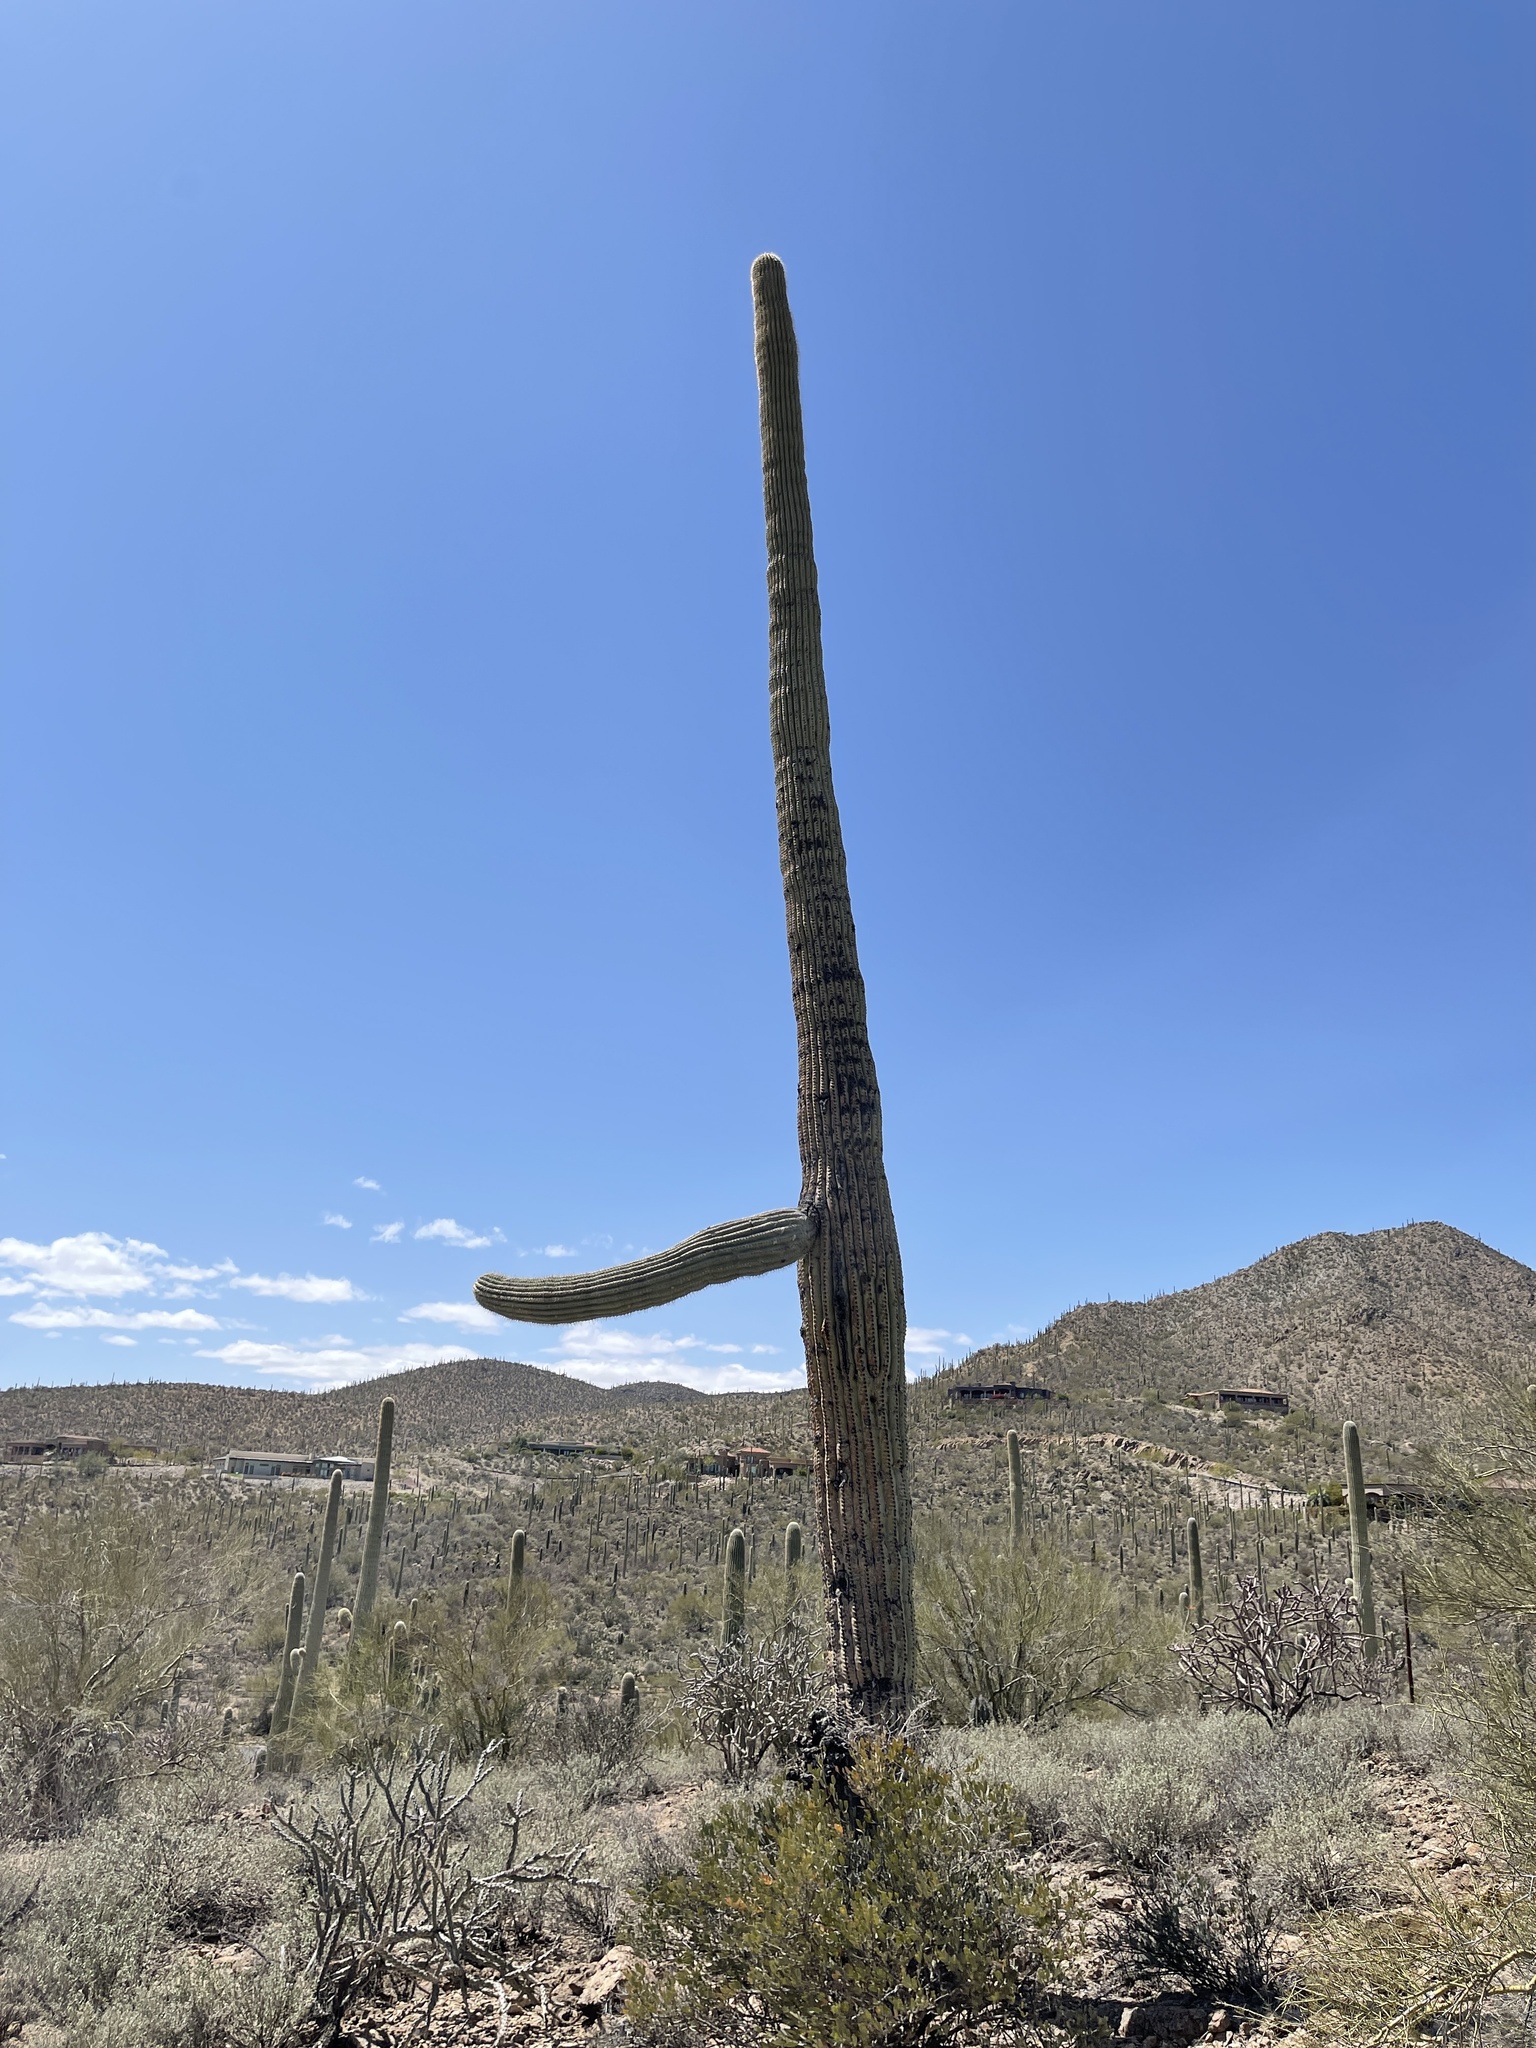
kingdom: Plantae
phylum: Tracheophyta
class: Magnoliopsida
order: Caryophyllales
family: Cactaceae
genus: Carnegiea
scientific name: Carnegiea gigantea
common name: Saguaro
